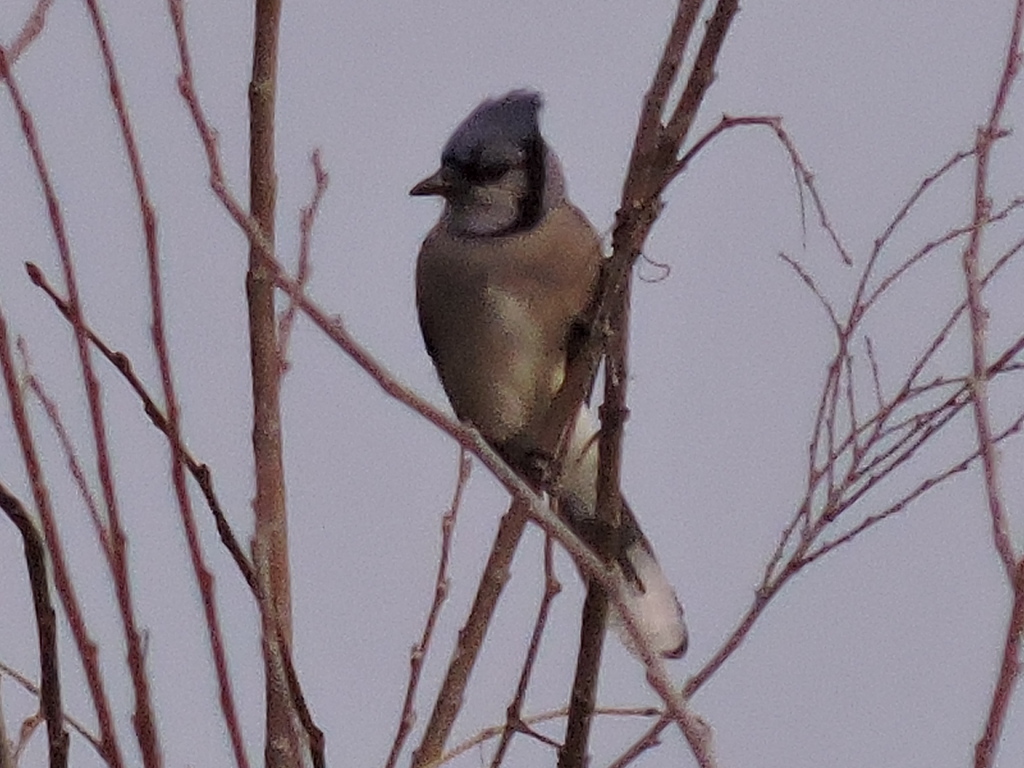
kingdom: Animalia
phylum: Chordata
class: Aves
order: Passeriformes
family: Corvidae
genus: Cyanocitta
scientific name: Cyanocitta cristata
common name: Blue jay
